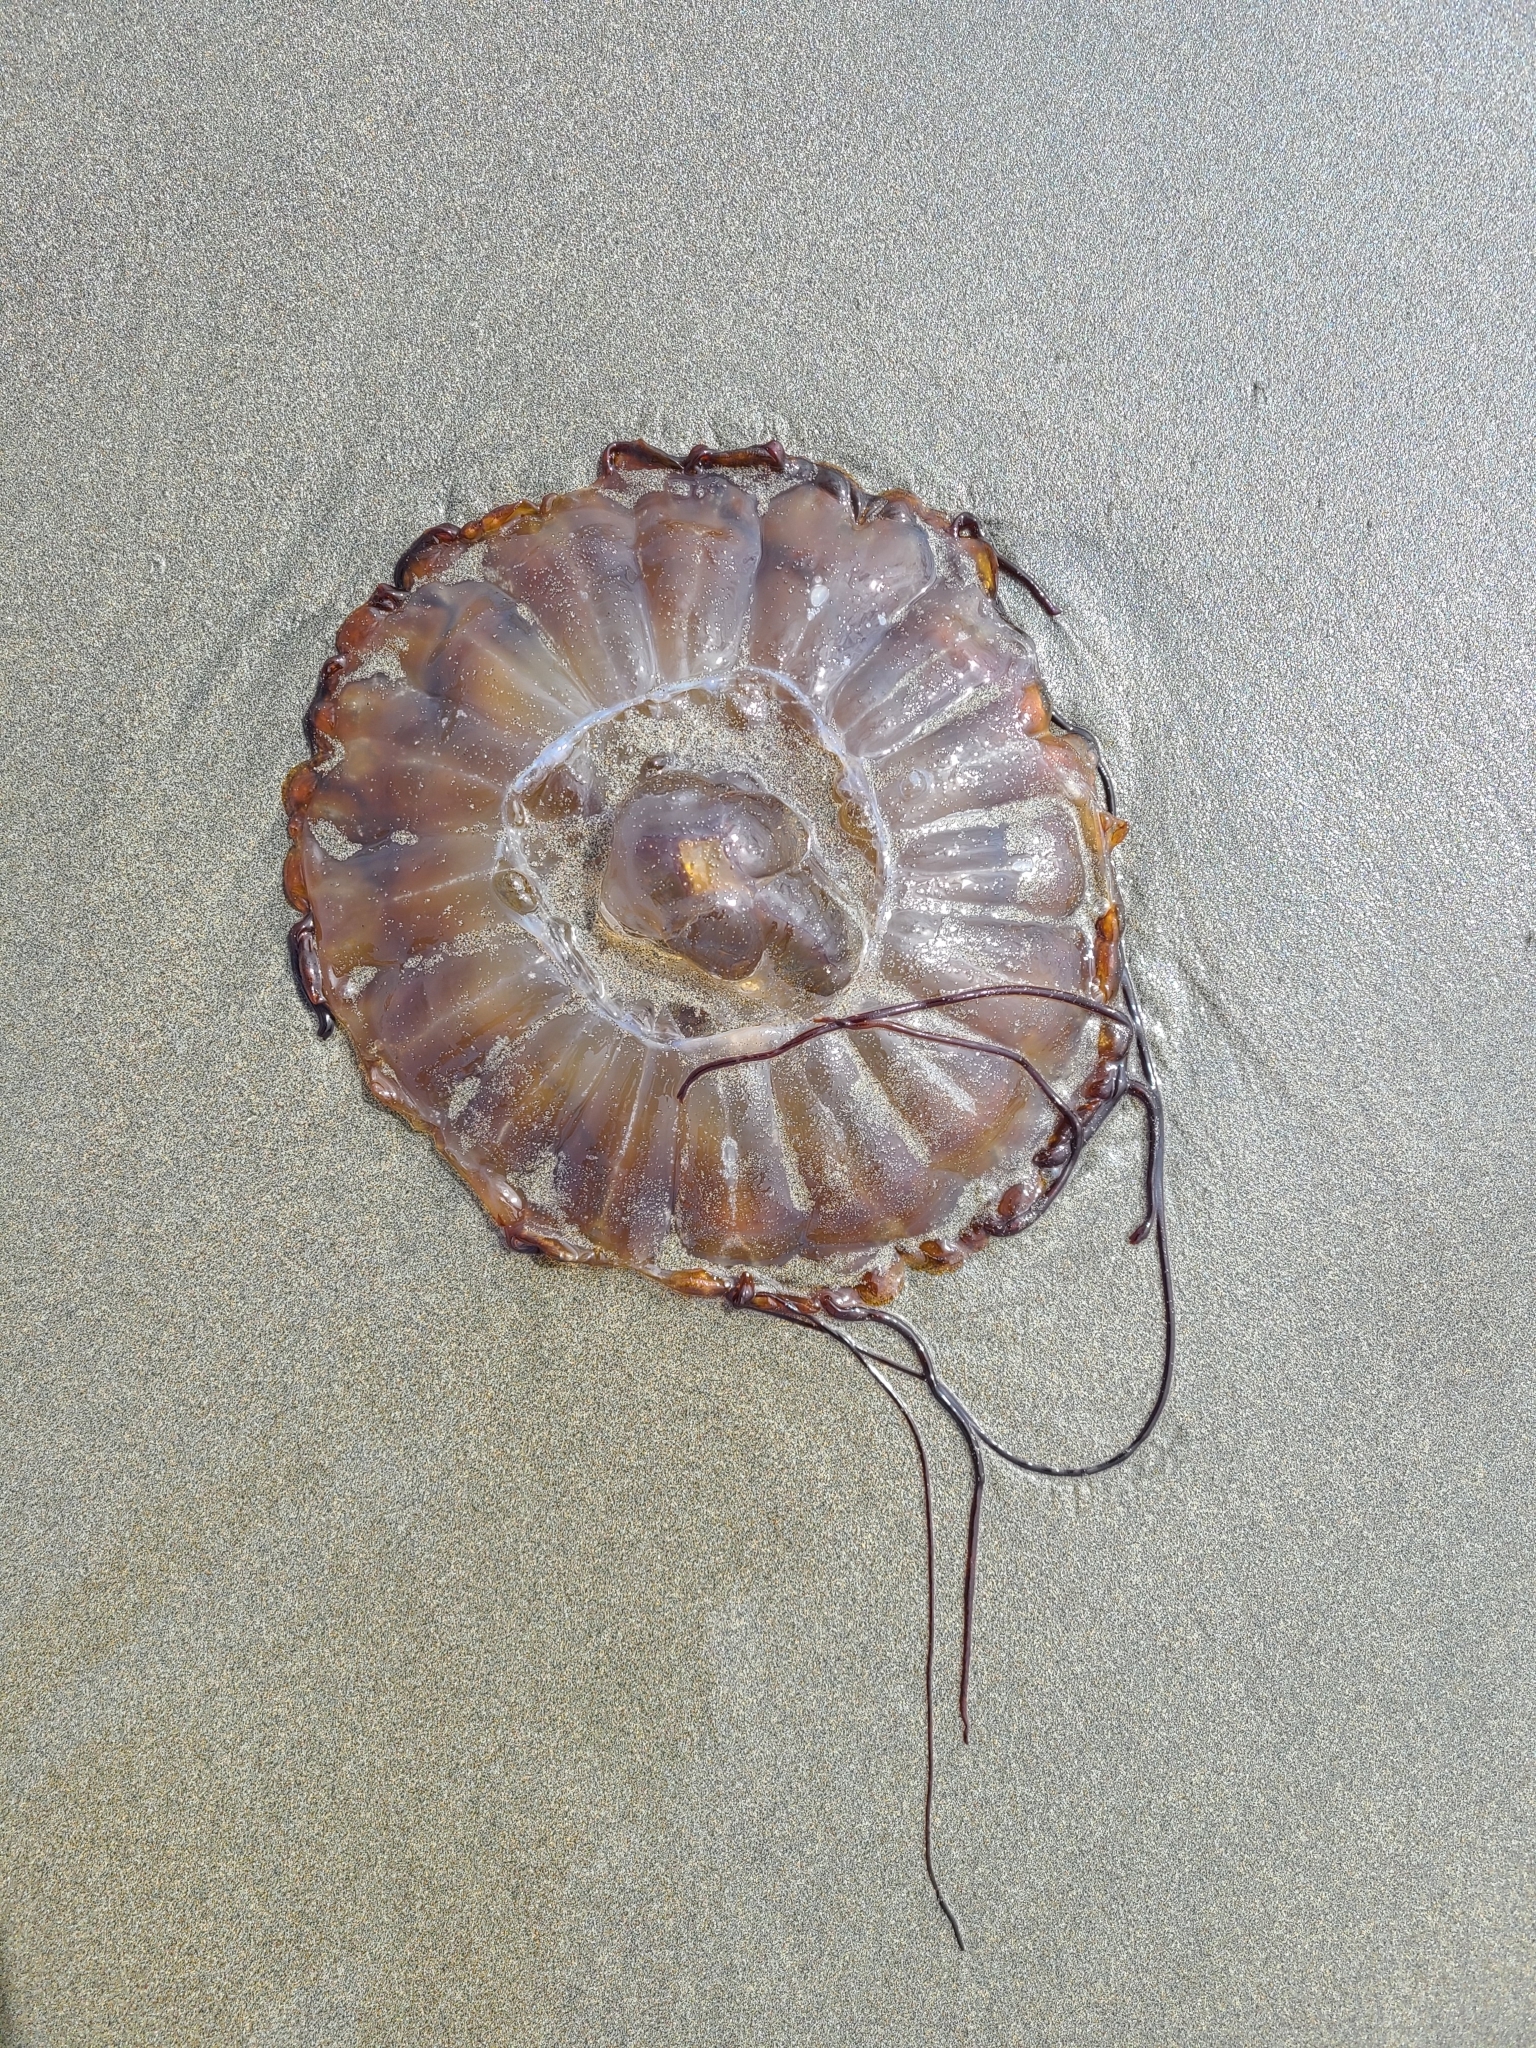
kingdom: Animalia
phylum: Cnidaria
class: Scyphozoa
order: Semaeostomeae
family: Pelagiidae
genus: Chrysaora
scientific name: Chrysaora fuscescens
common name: Sea nettle
